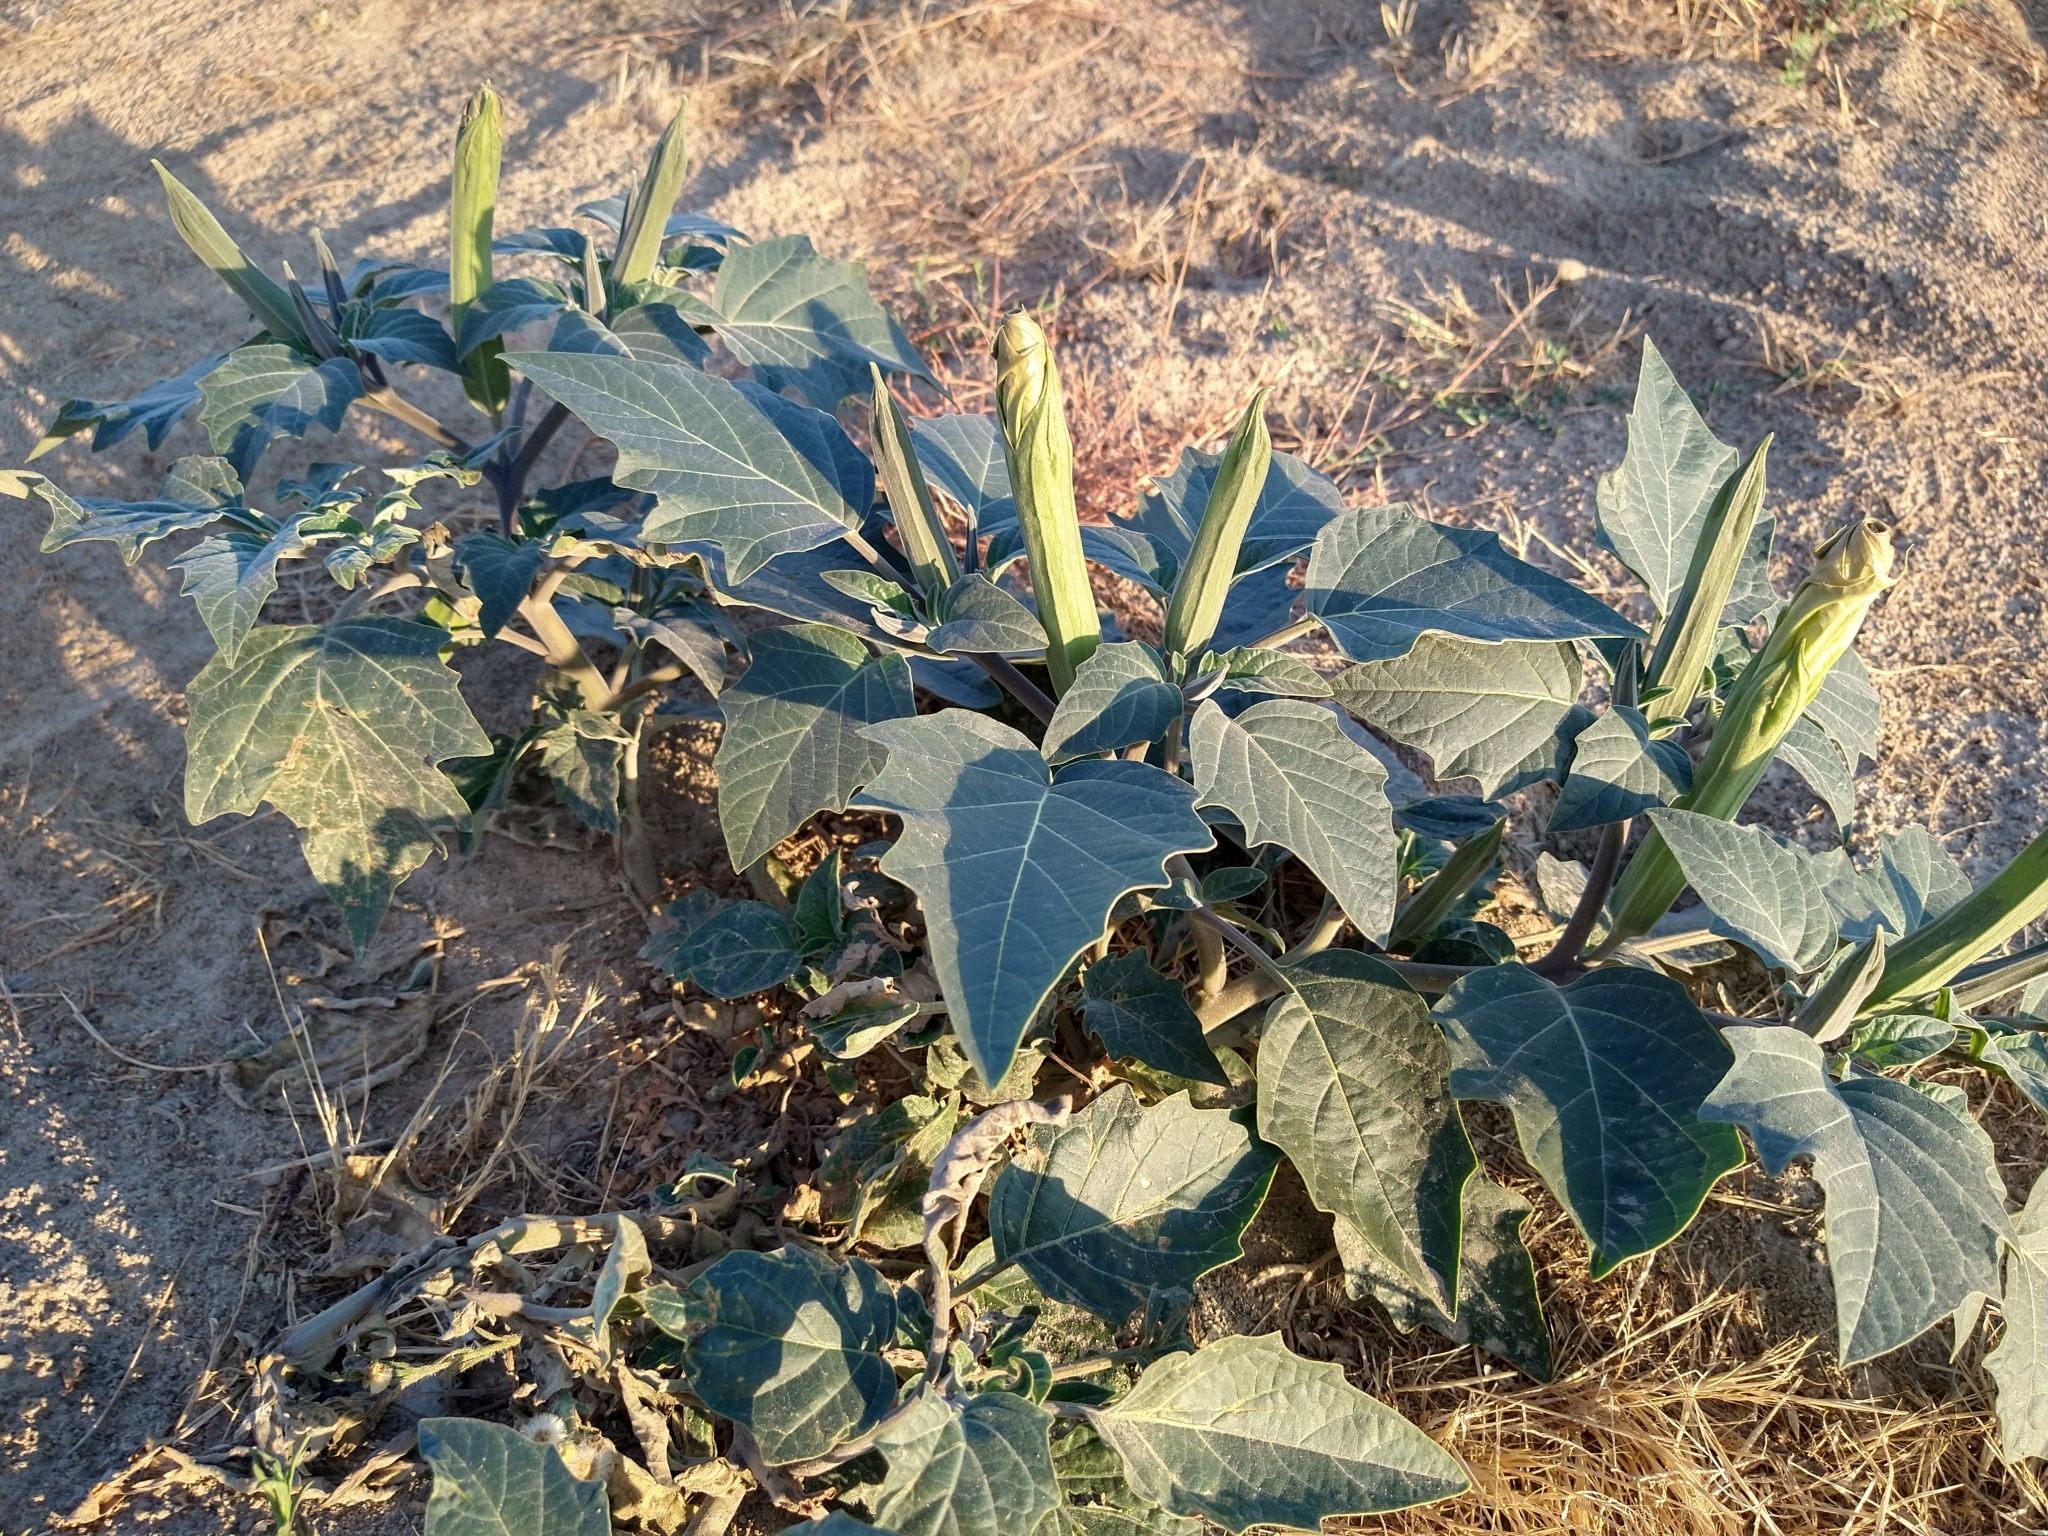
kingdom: Plantae
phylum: Tracheophyta
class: Magnoliopsida
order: Solanales
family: Solanaceae
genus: Datura
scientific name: Datura wrightii
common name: Sacred thorn-apple
